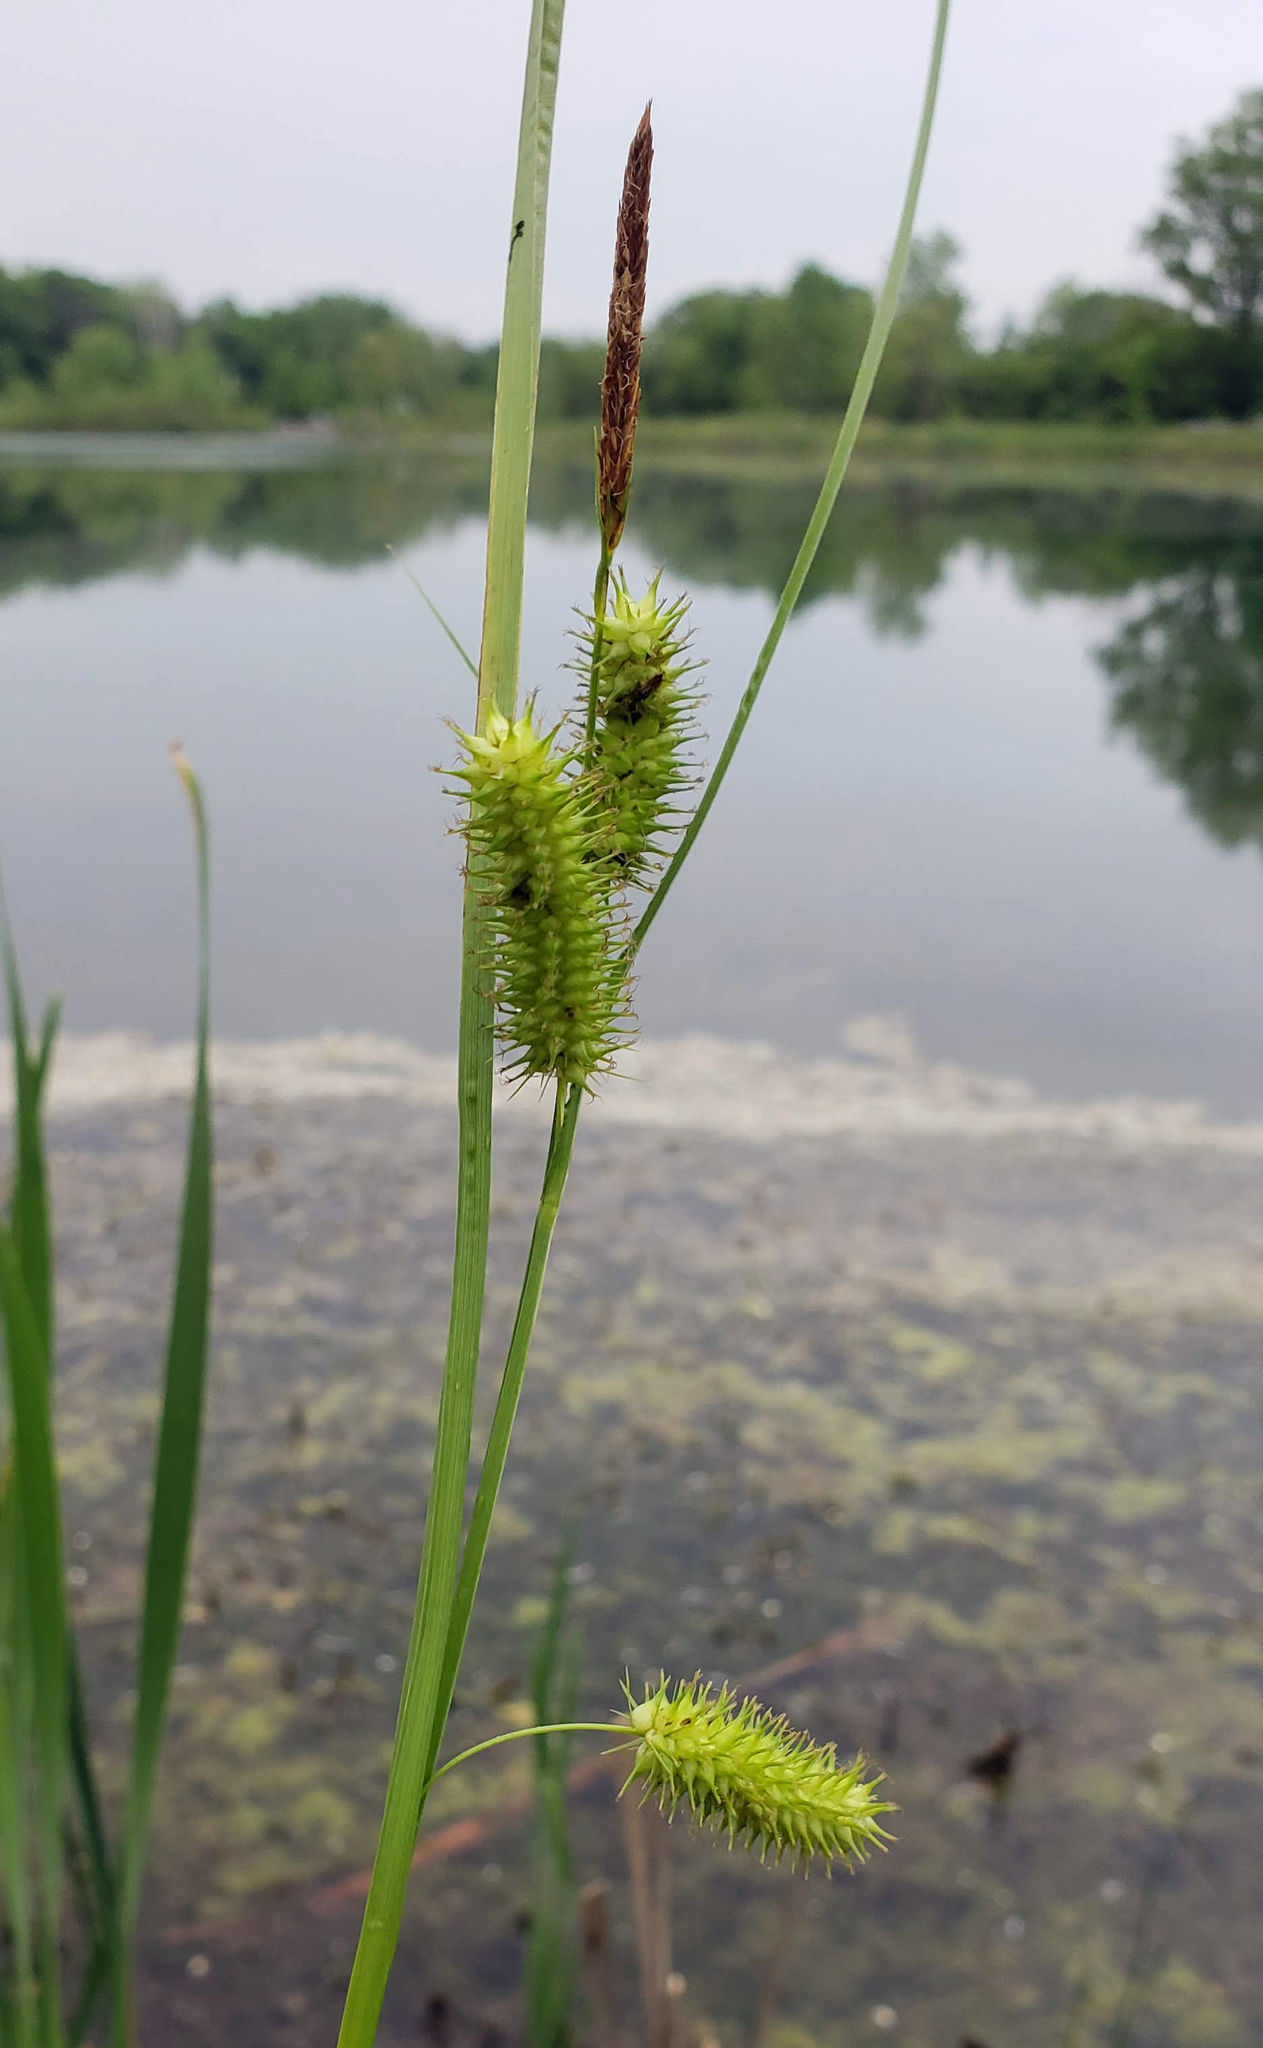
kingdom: Plantae
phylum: Tracheophyta
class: Liliopsida
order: Poales
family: Cyperaceae
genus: Carex
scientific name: Carex hystericina
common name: Bottlebrush sedge
